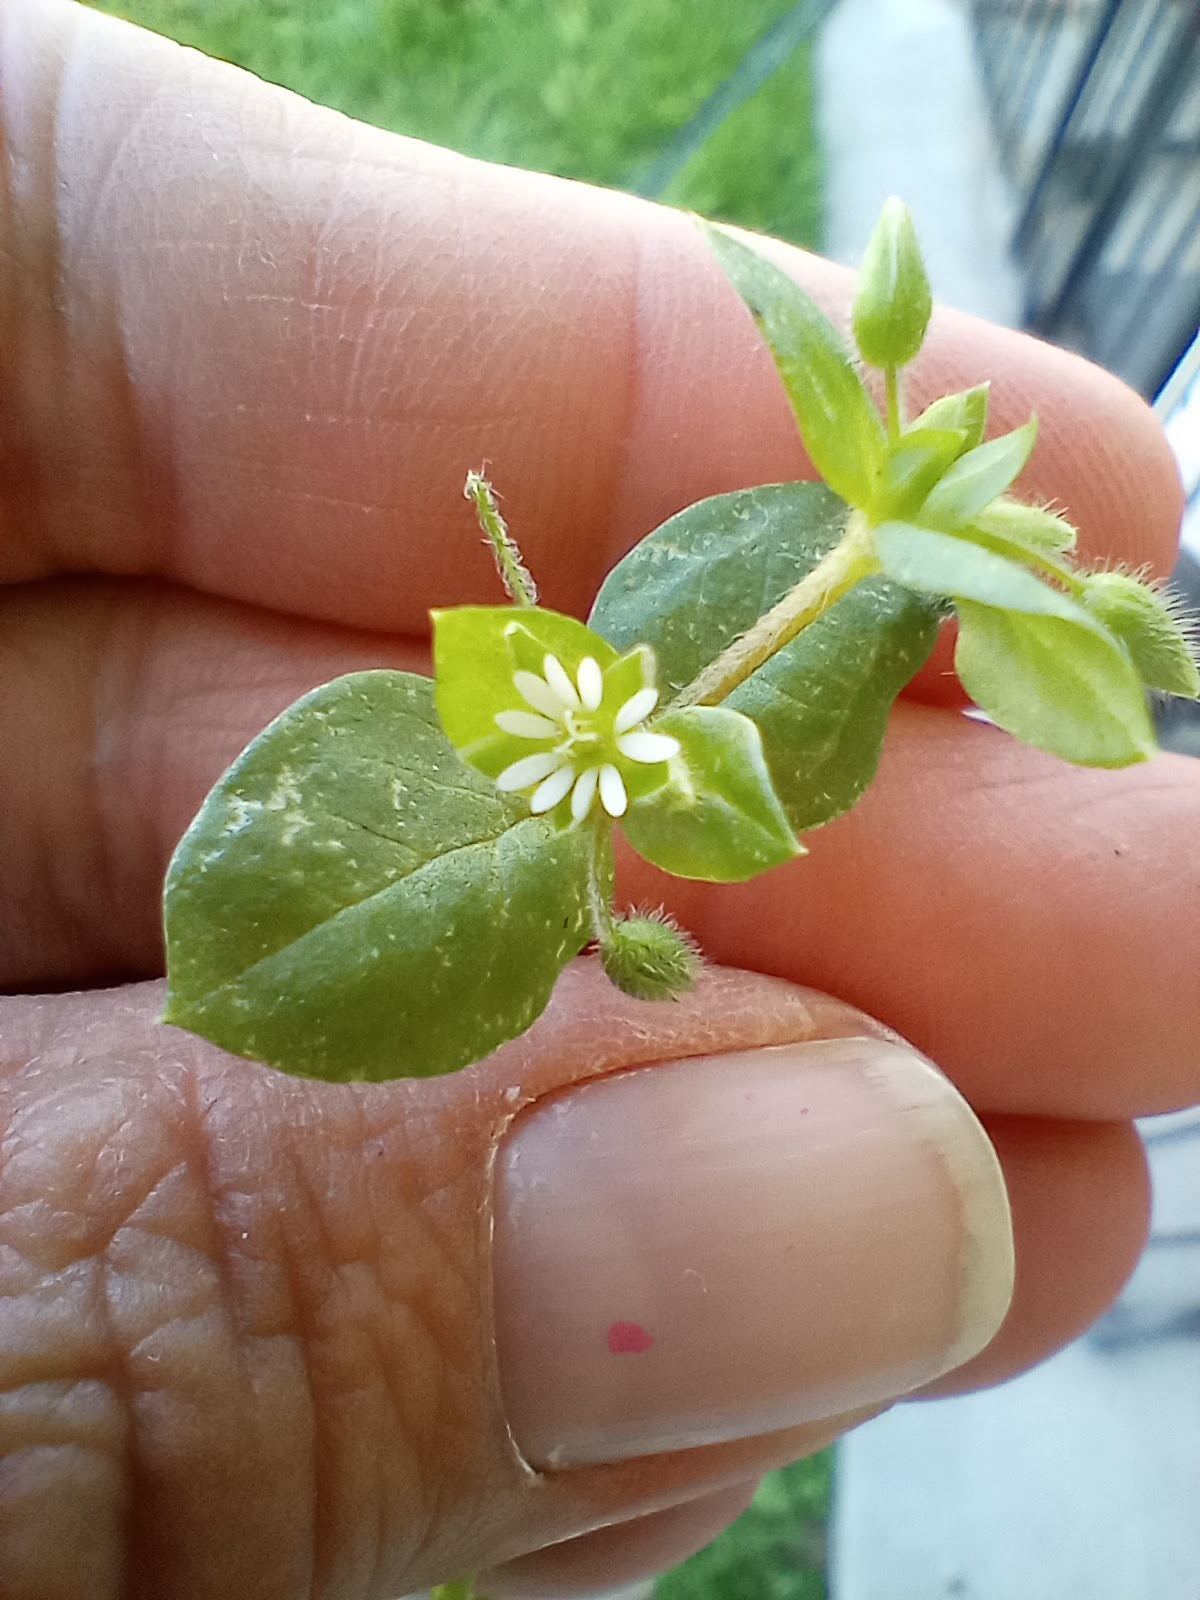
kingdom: Plantae
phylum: Tracheophyta
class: Magnoliopsida
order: Caryophyllales
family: Caryophyllaceae
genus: Stellaria
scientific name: Stellaria media
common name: Common chickweed
